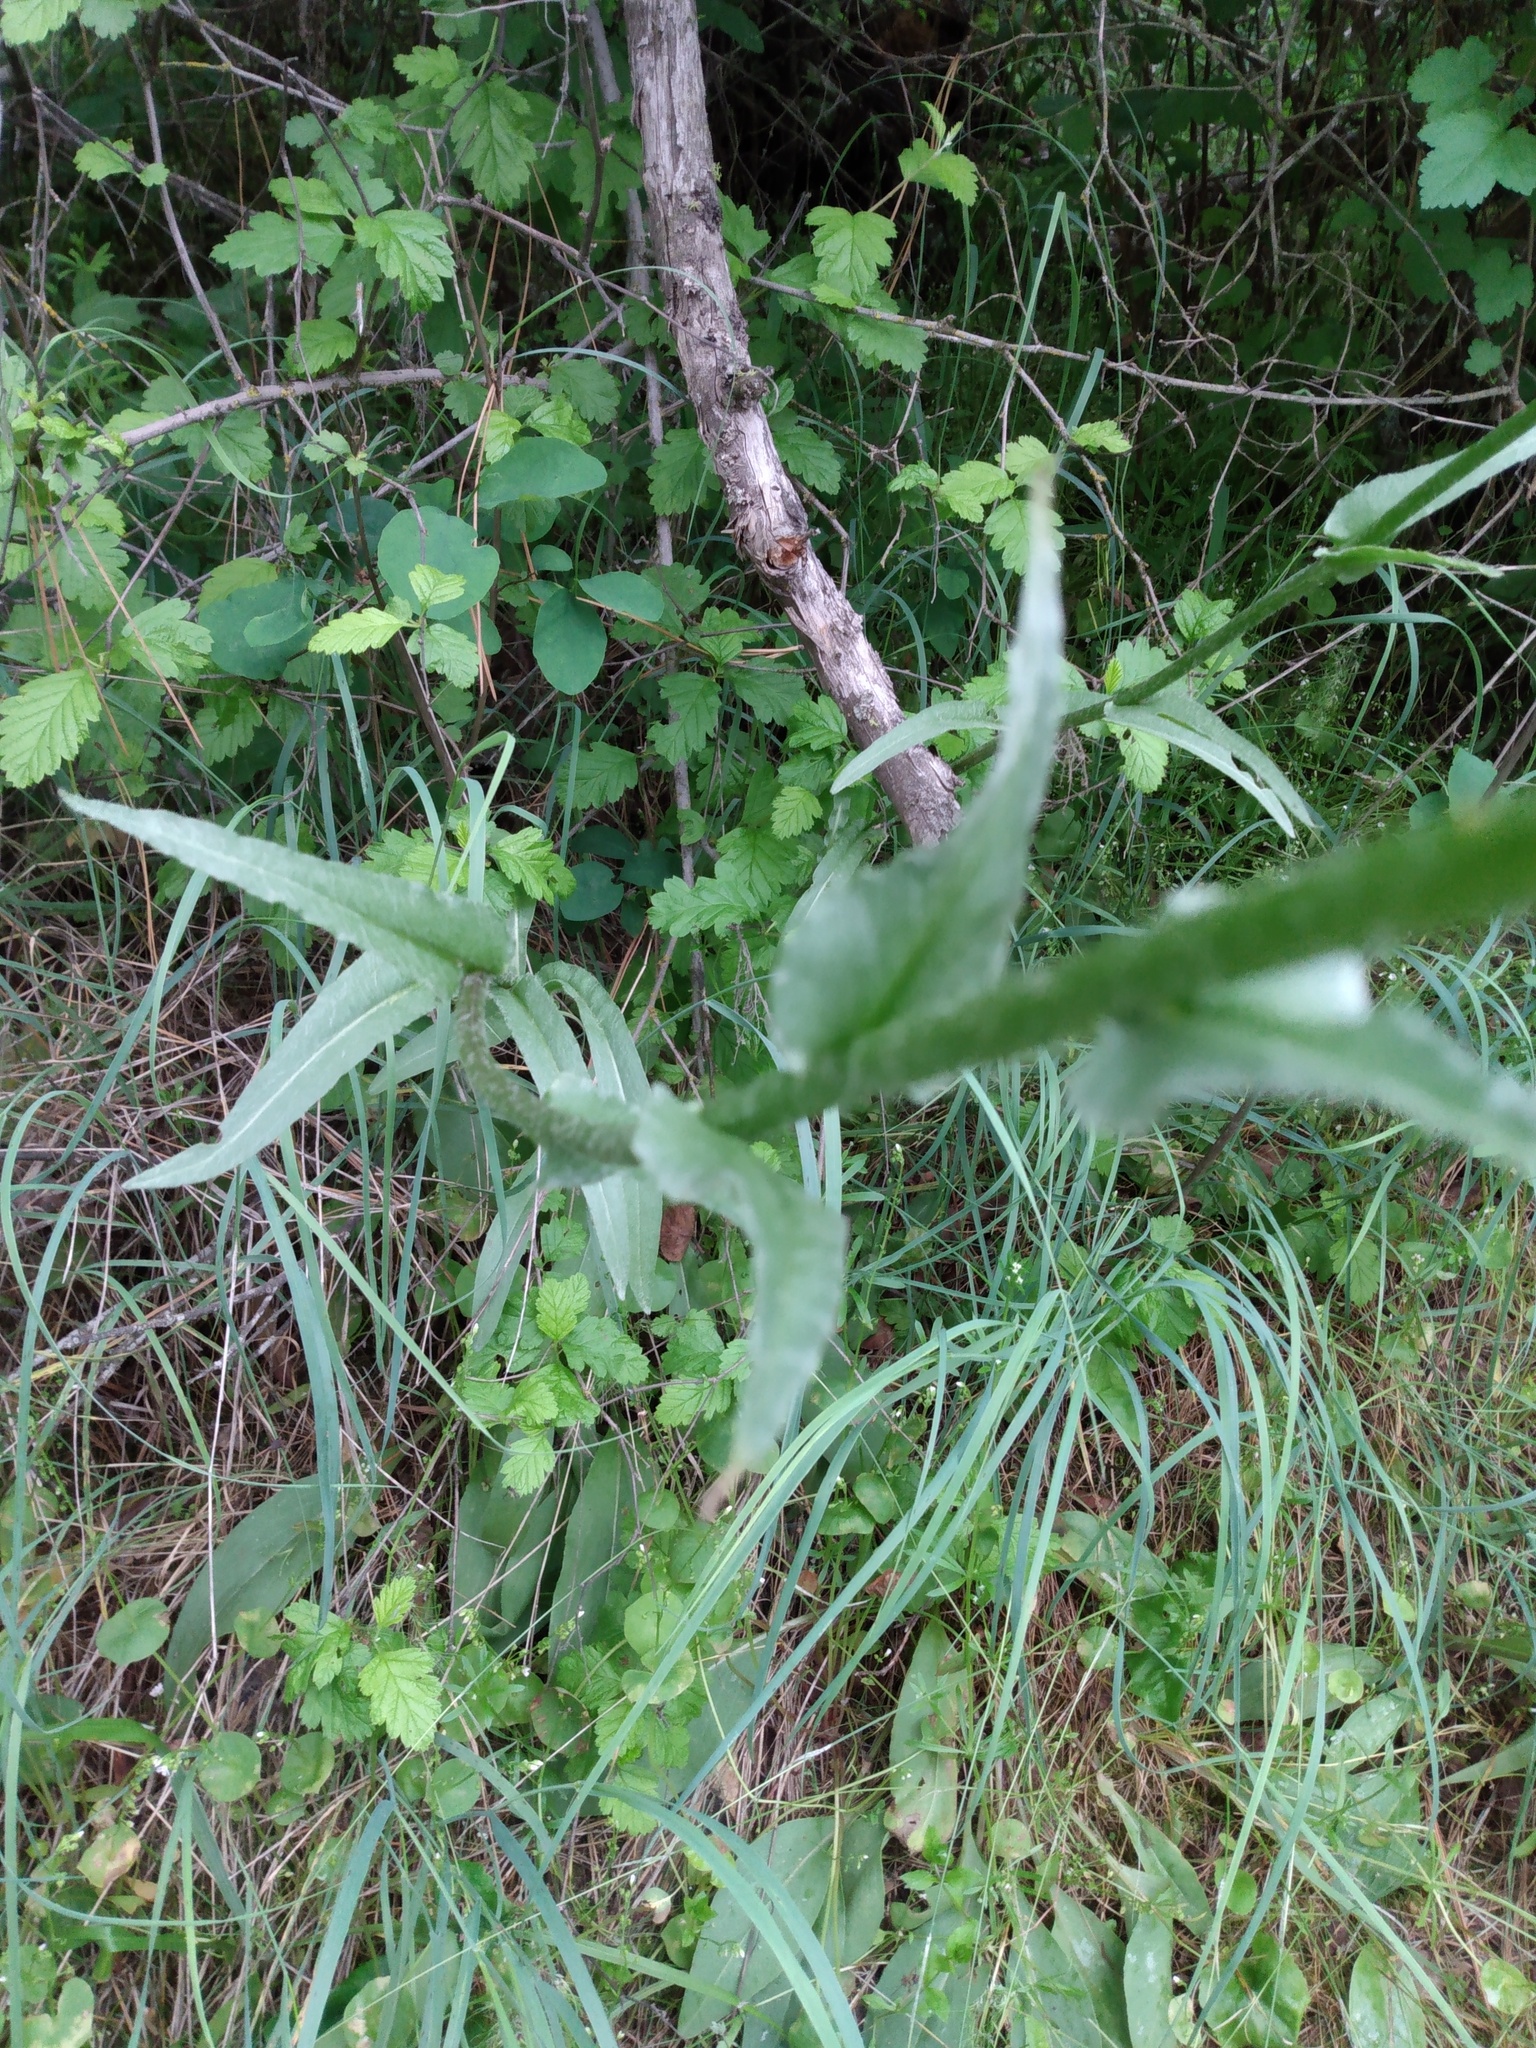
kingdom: Plantae
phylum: Tracheophyta
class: Magnoliopsida
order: Asterales
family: Asteraceae
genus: Senecio
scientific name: Senecio integerrimus
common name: Gaugeplant
